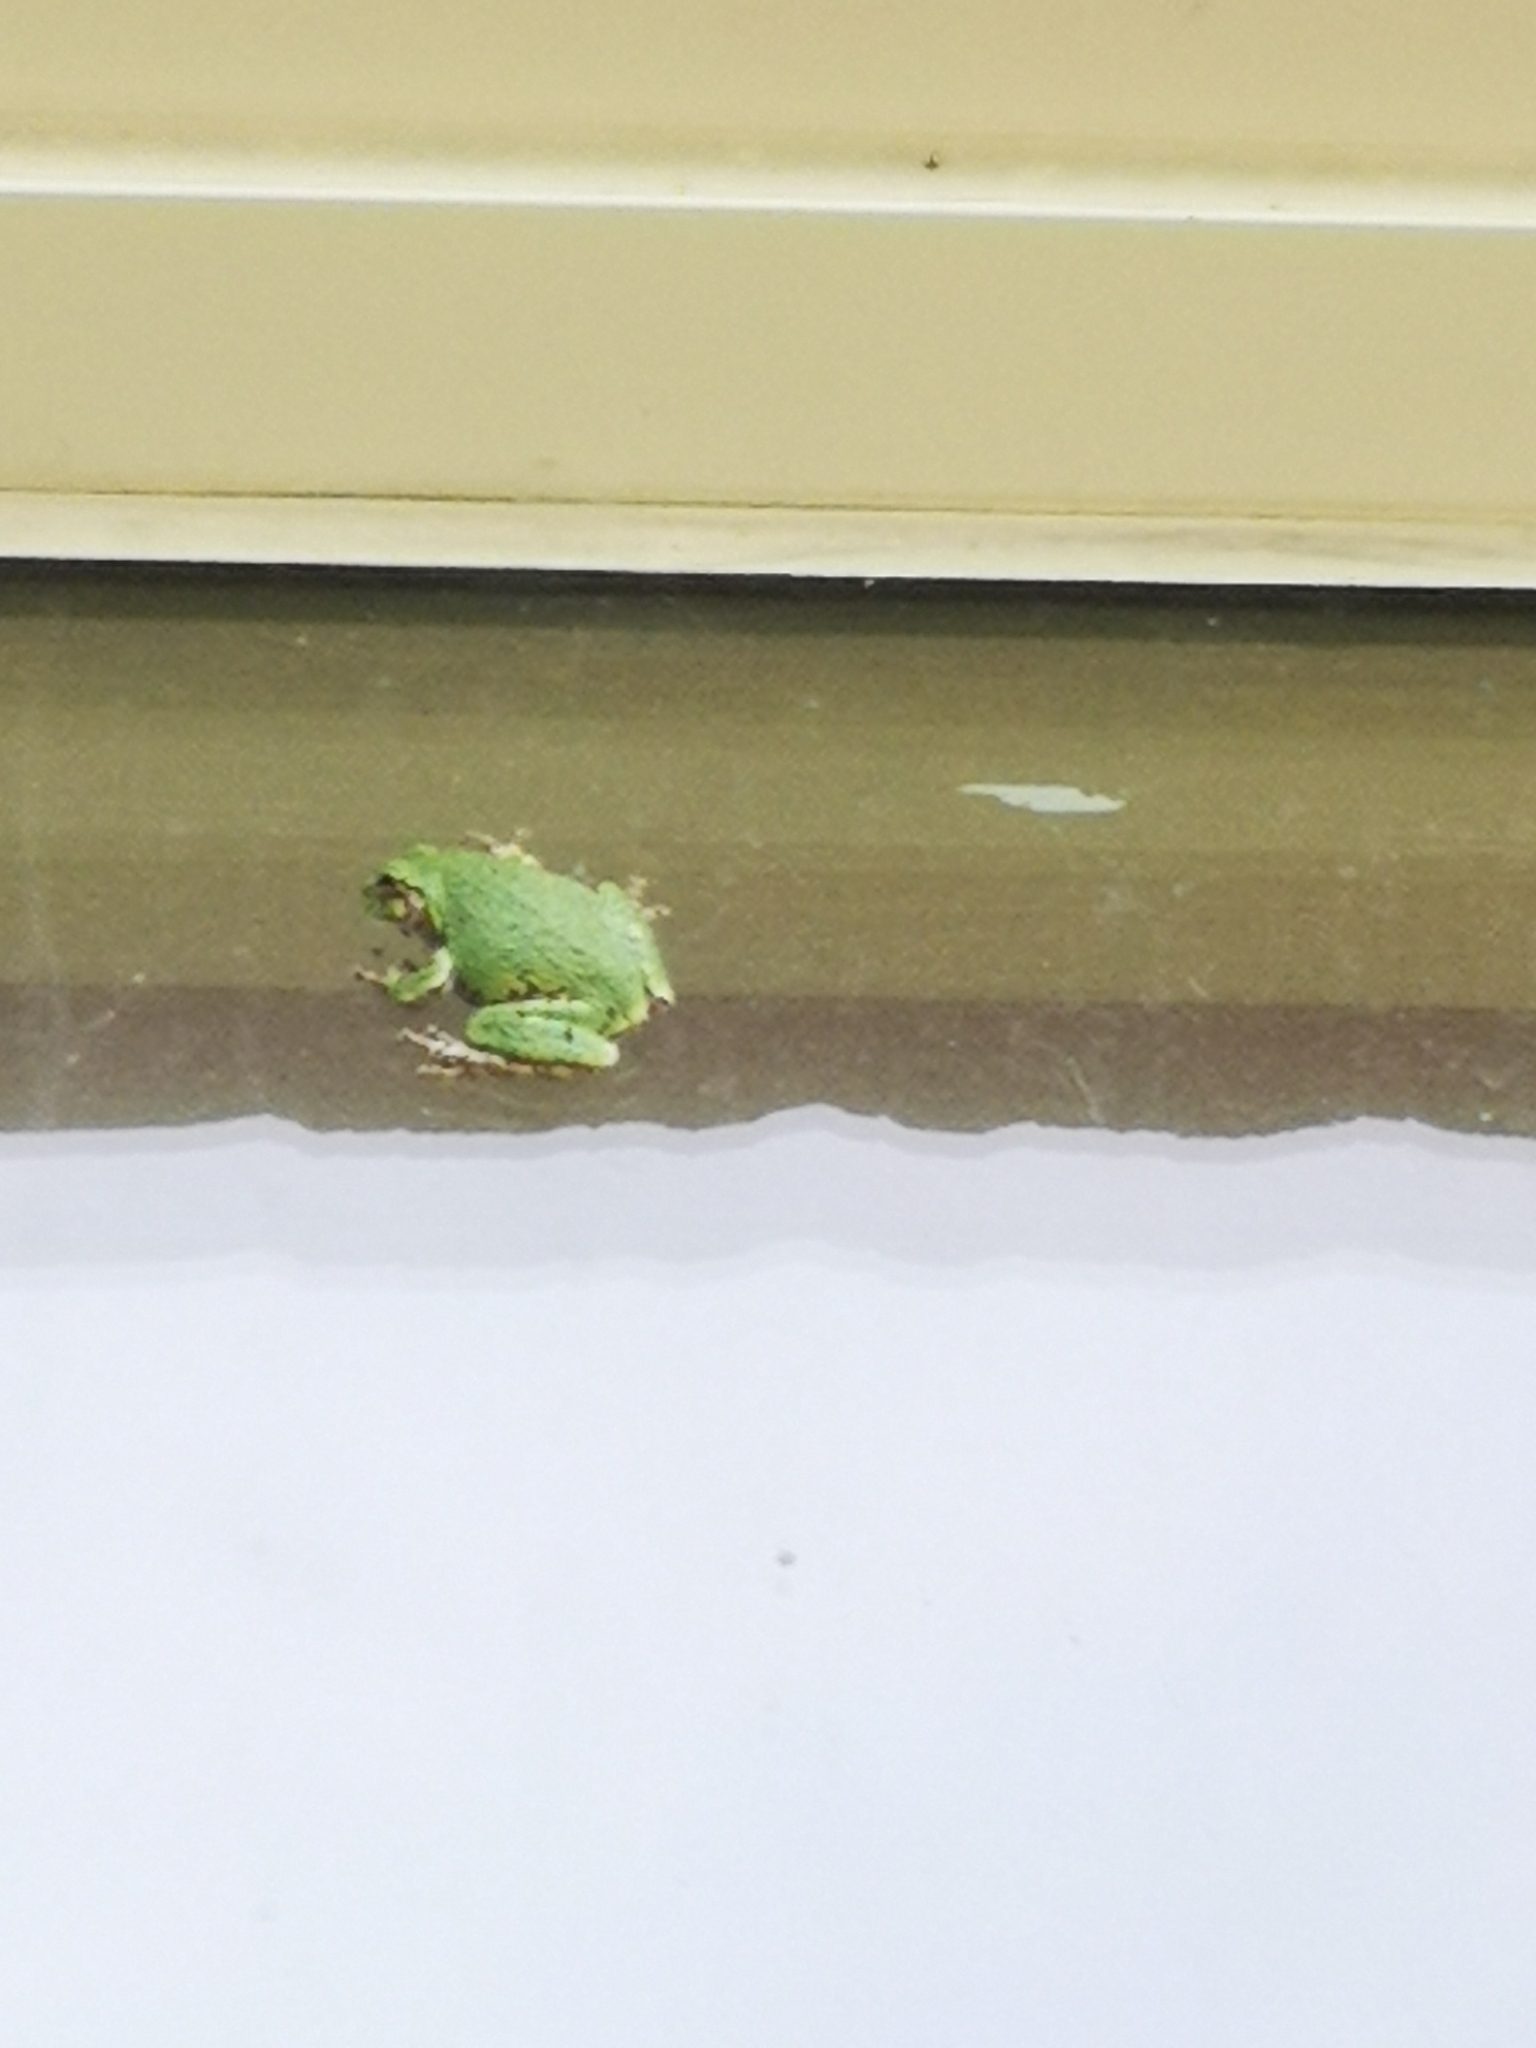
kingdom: Animalia
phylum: Chordata
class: Amphibia
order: Anura
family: Hylidae
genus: Dryophytes
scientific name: Dryophytes versicolor
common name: Gray treefrog
